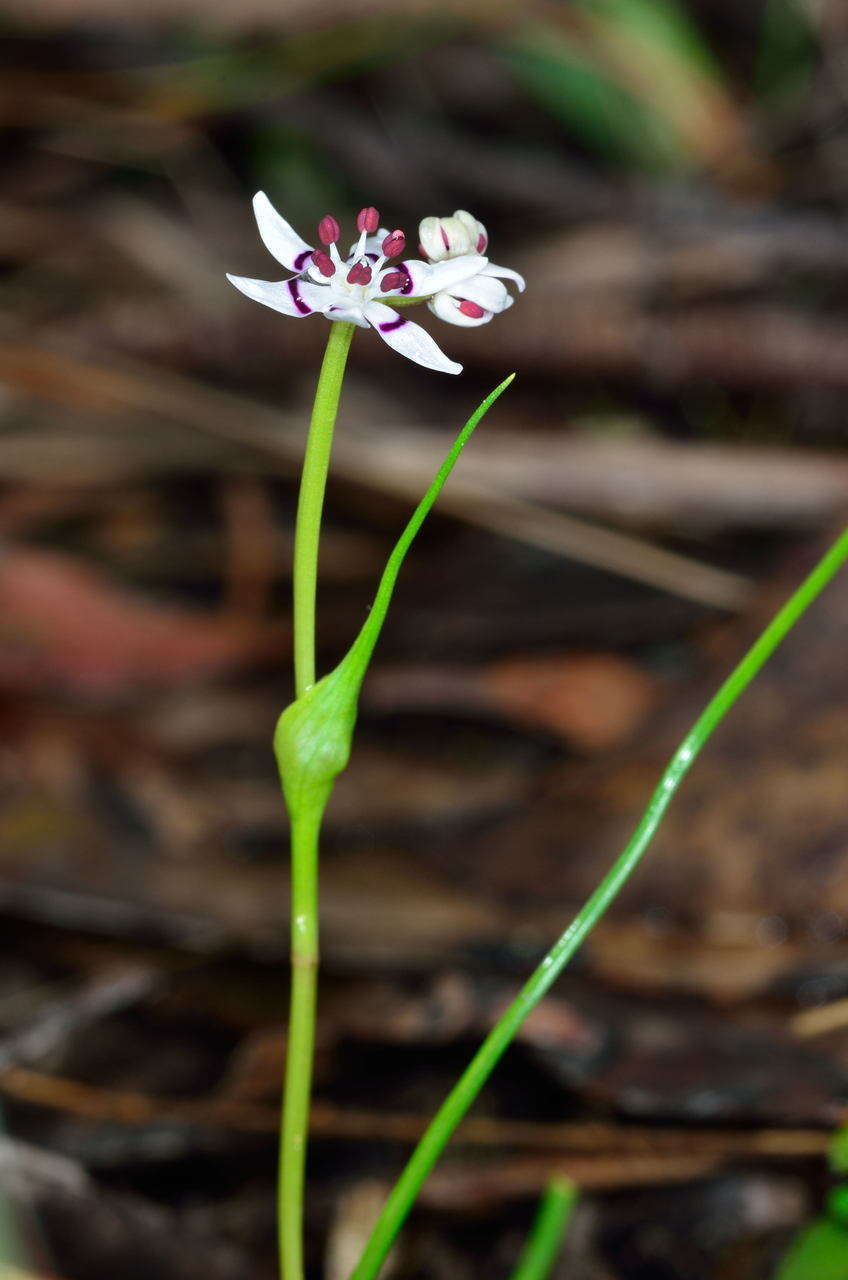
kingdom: Plantae
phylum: Tracheophyta
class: Liliopsida
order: Liliales
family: Colchicaceae
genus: Wurmbea
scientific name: Wurmbea dioica
